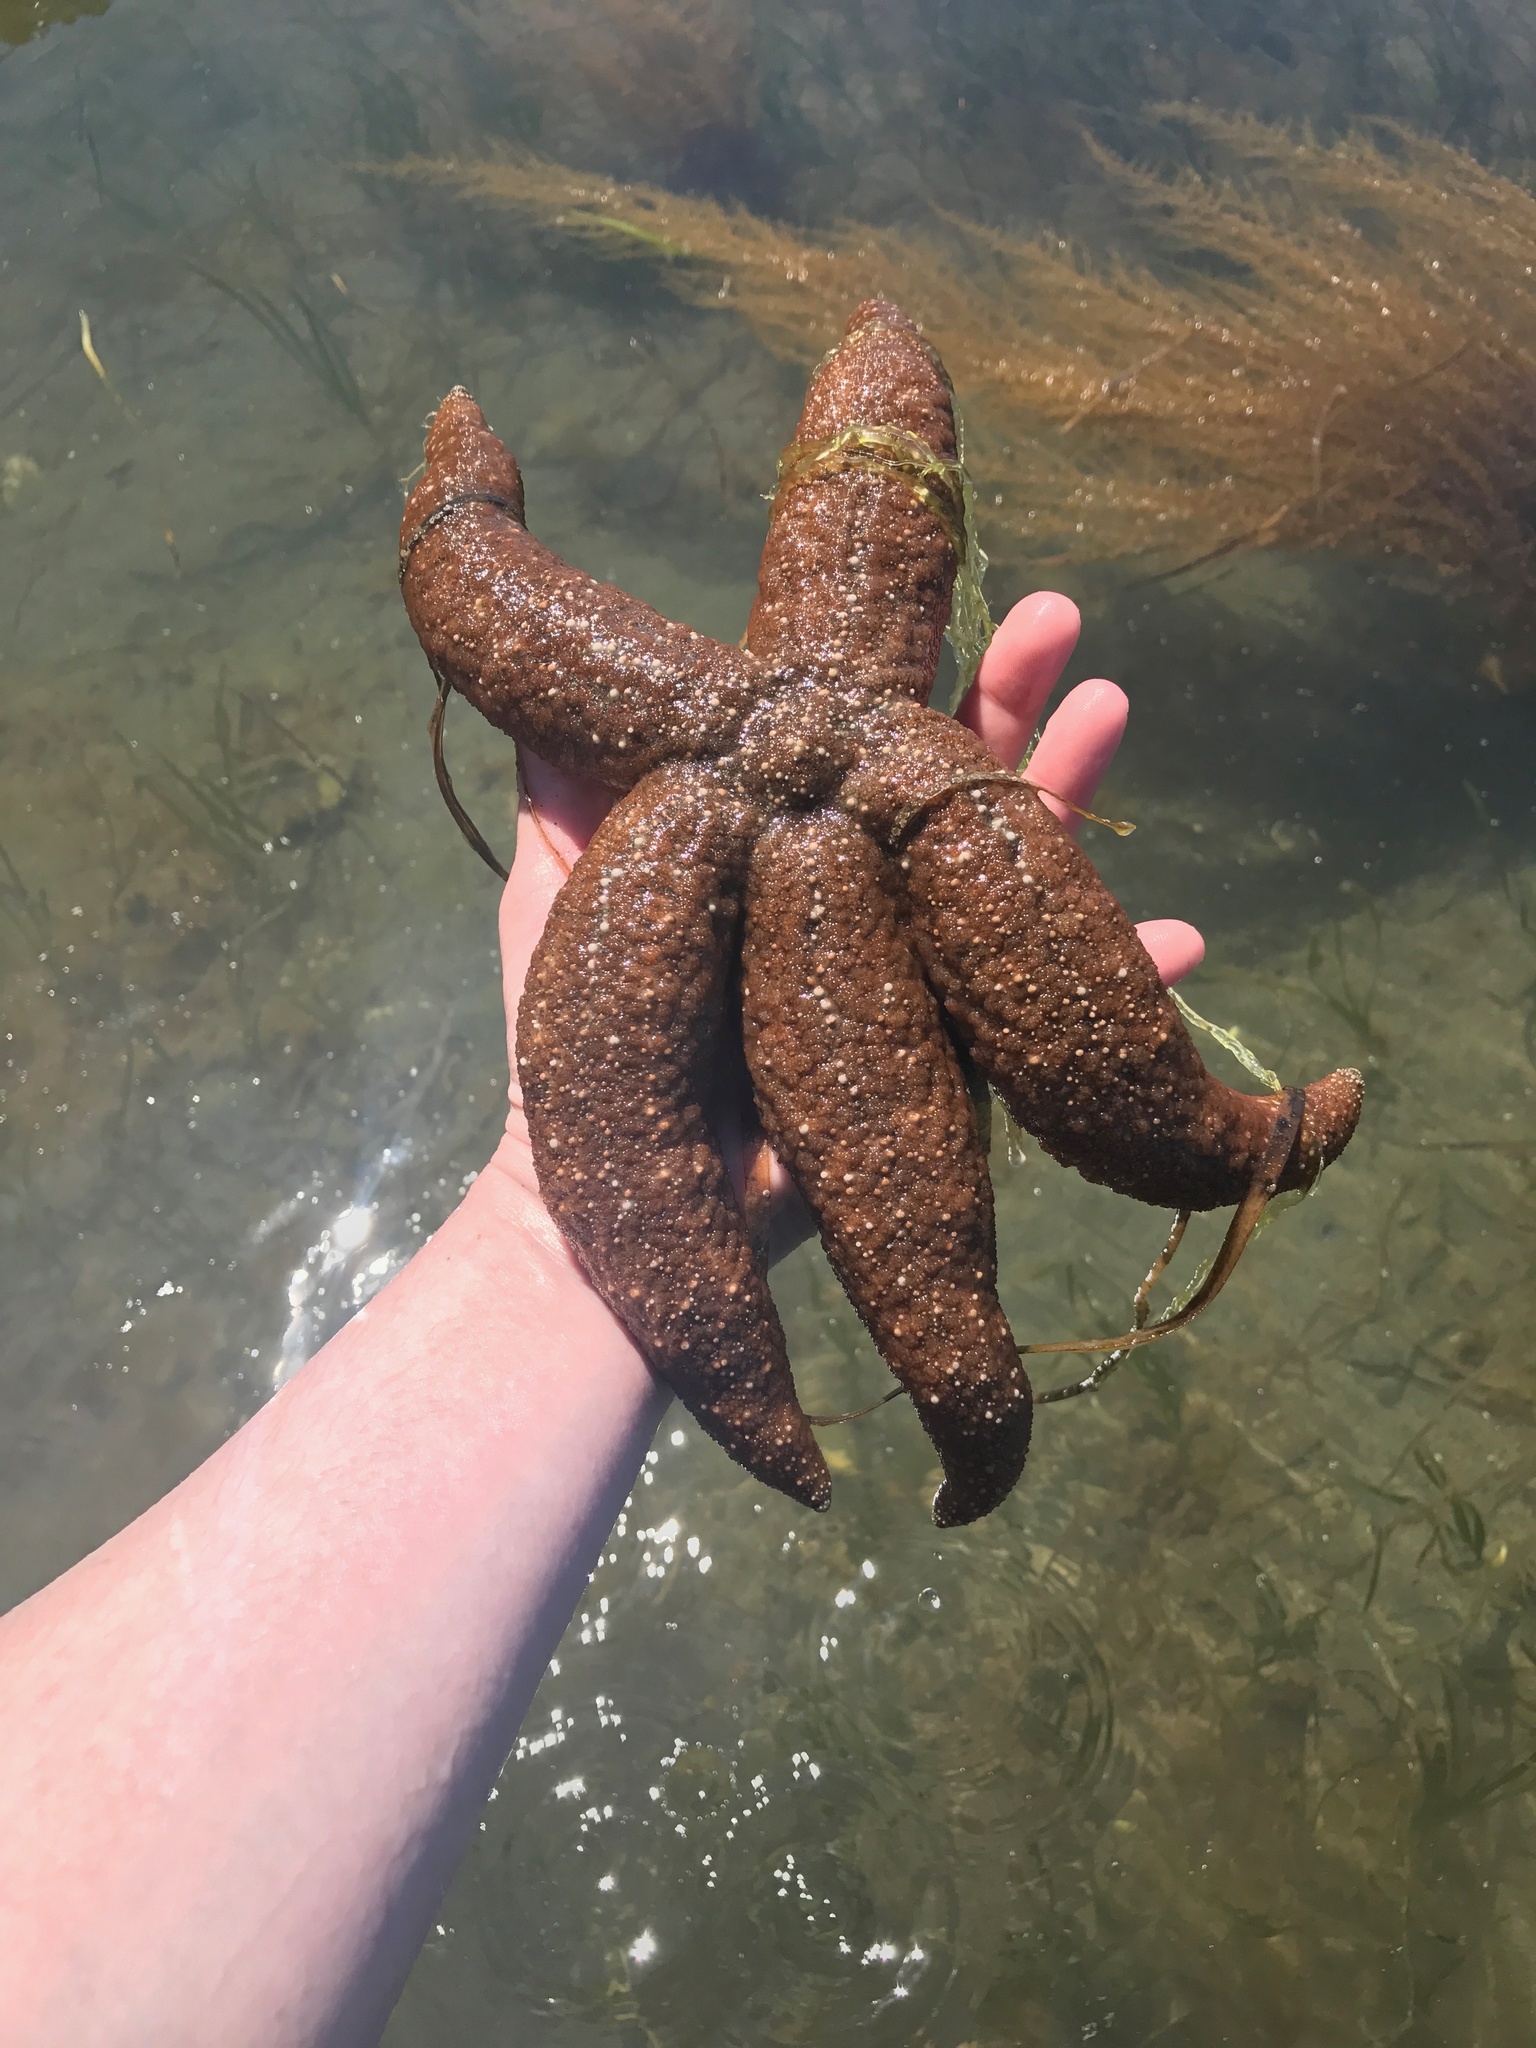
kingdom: Animalia
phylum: Echinodermata
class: Asteroidea
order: Forcipulatida
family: Asteriidae
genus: Evasterias
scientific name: Evasterias troschelii
